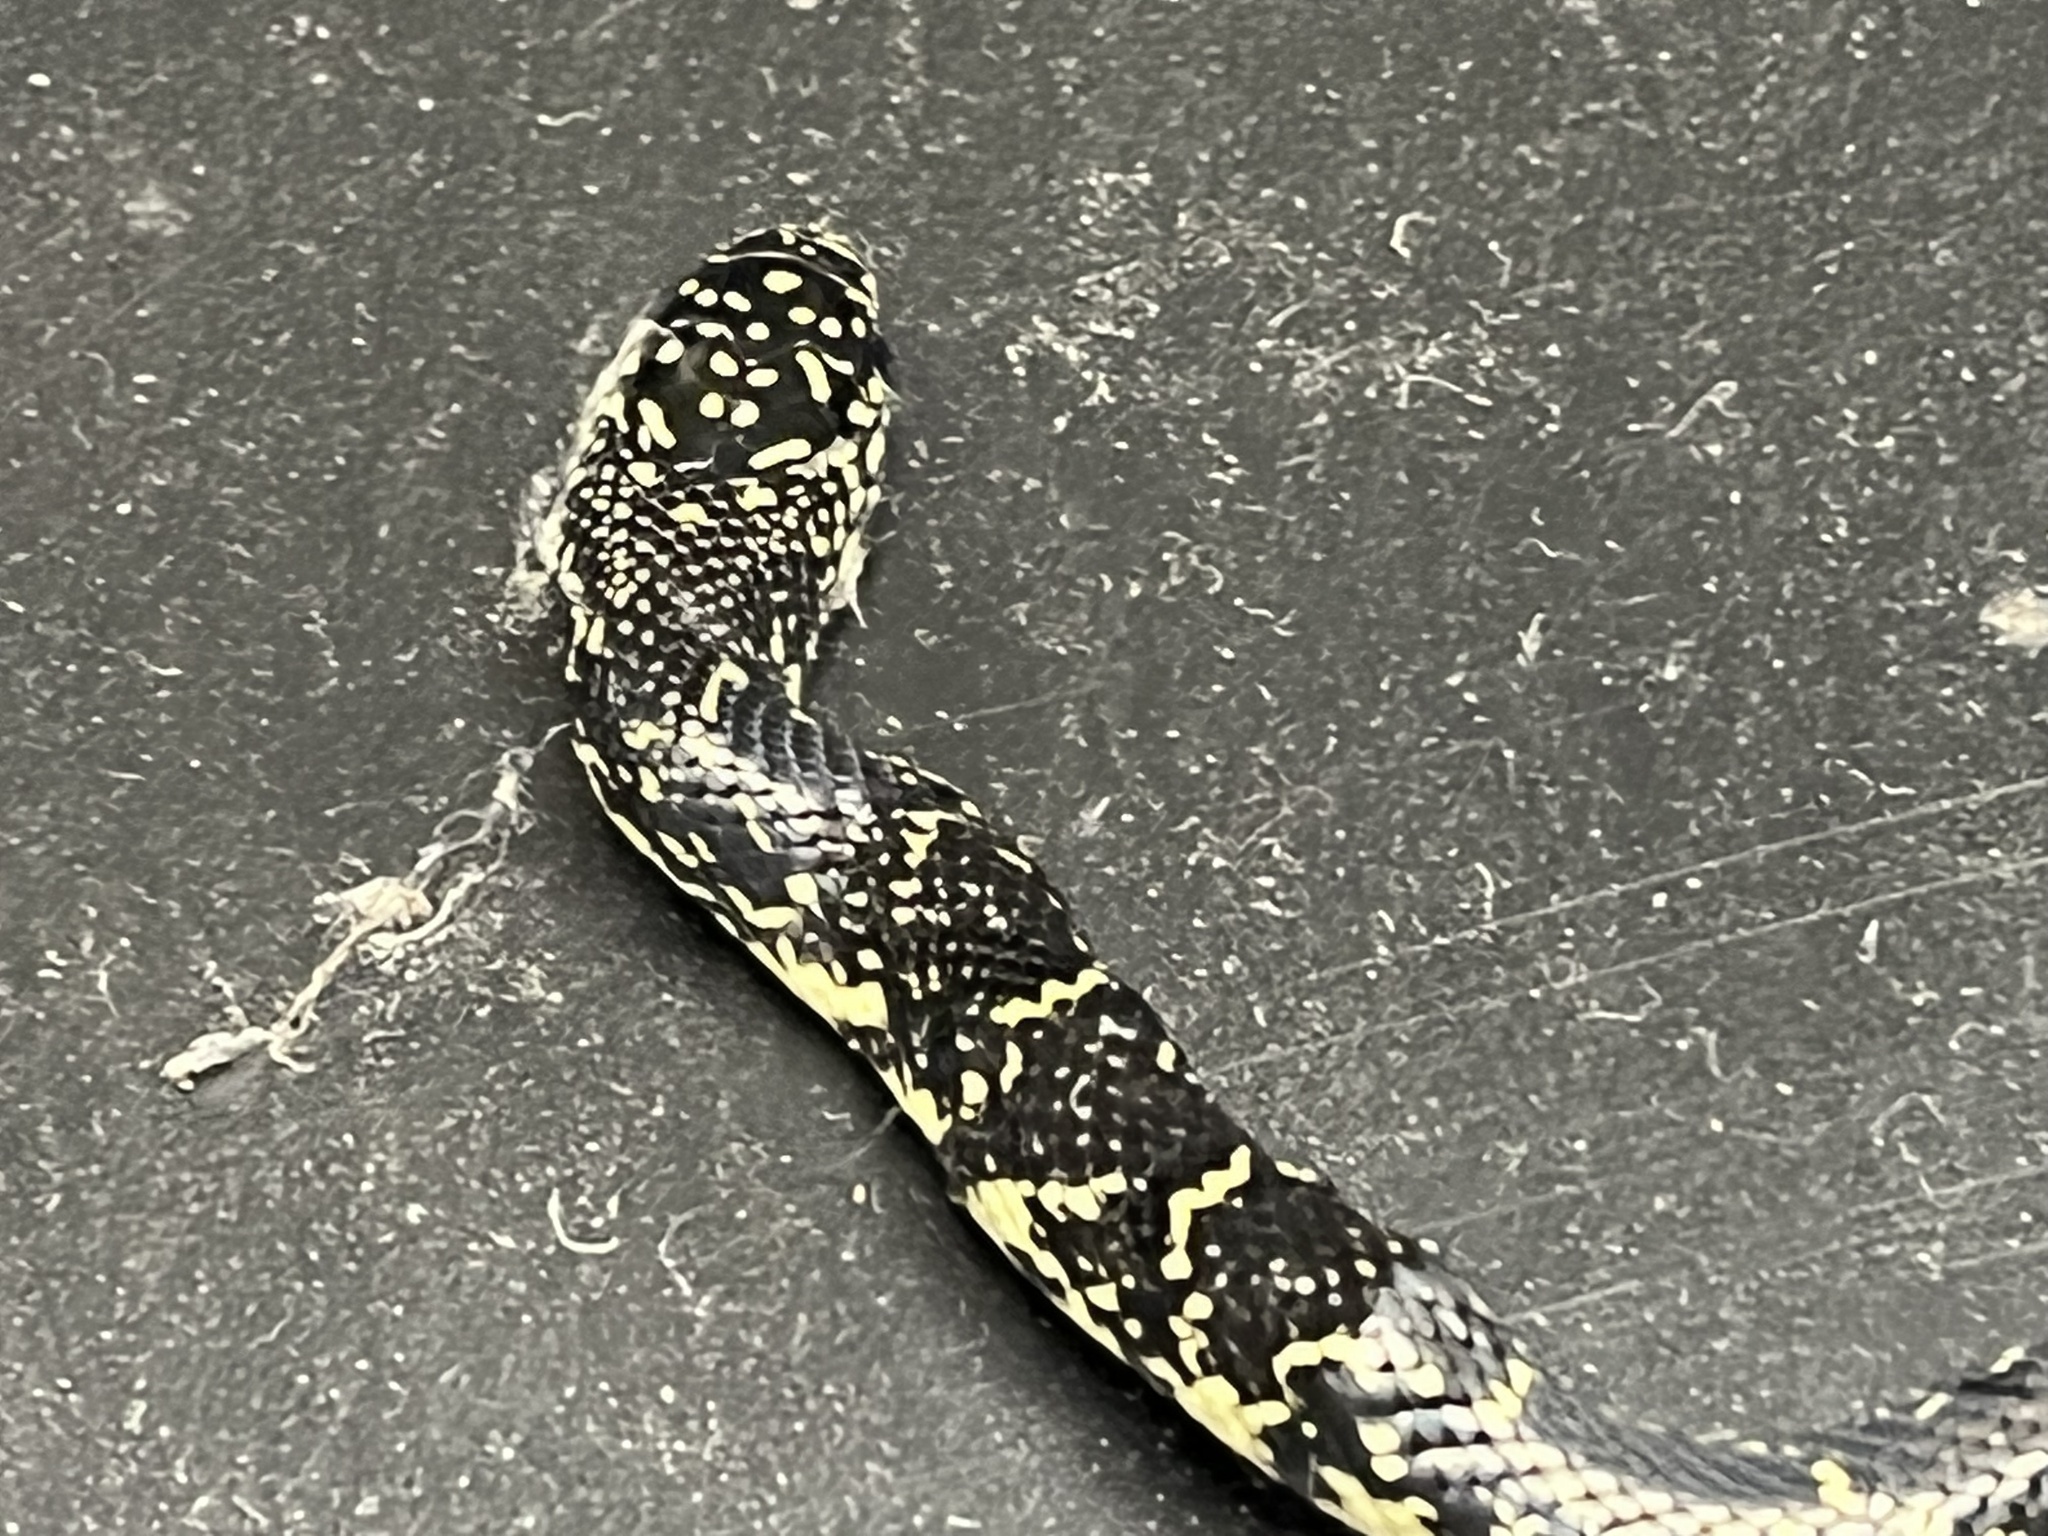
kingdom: Animalia
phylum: Chordata
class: Squamata
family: Colubridae
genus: Lampropeltis
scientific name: Lampropeltis nigra
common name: Black kingsnake
